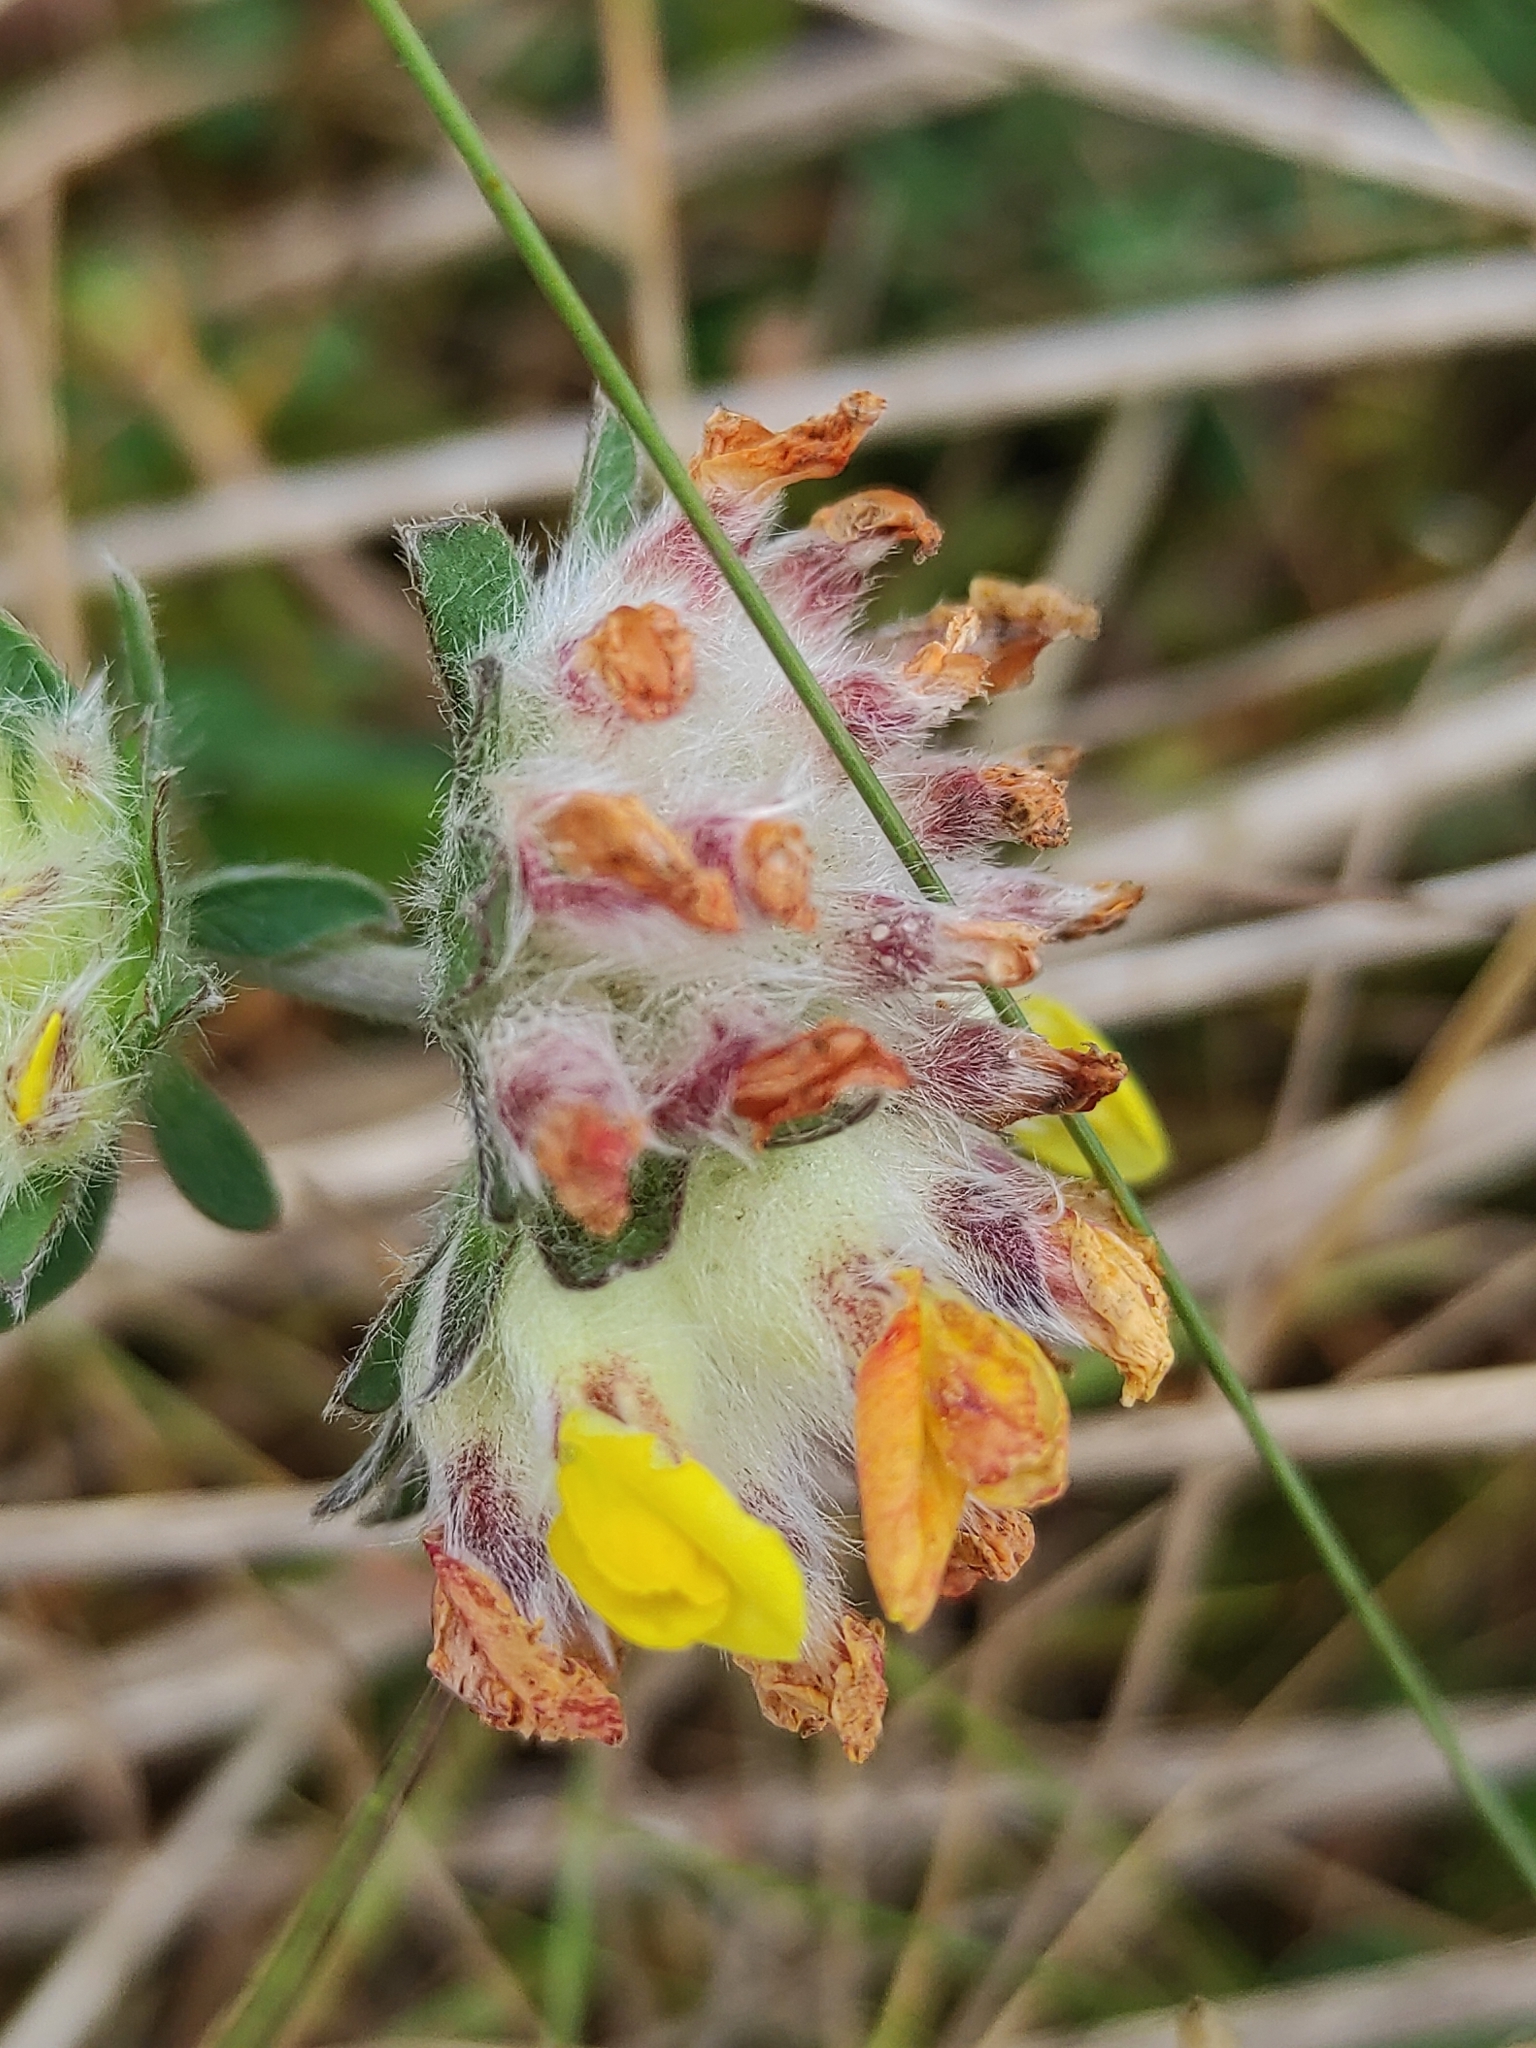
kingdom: Plantae
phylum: Tracheophyta
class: Magnoliopsida
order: Fabales
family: Fabaceae
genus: Anthyllis
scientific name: Anthyllis vulneraria
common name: Kidney vetch
